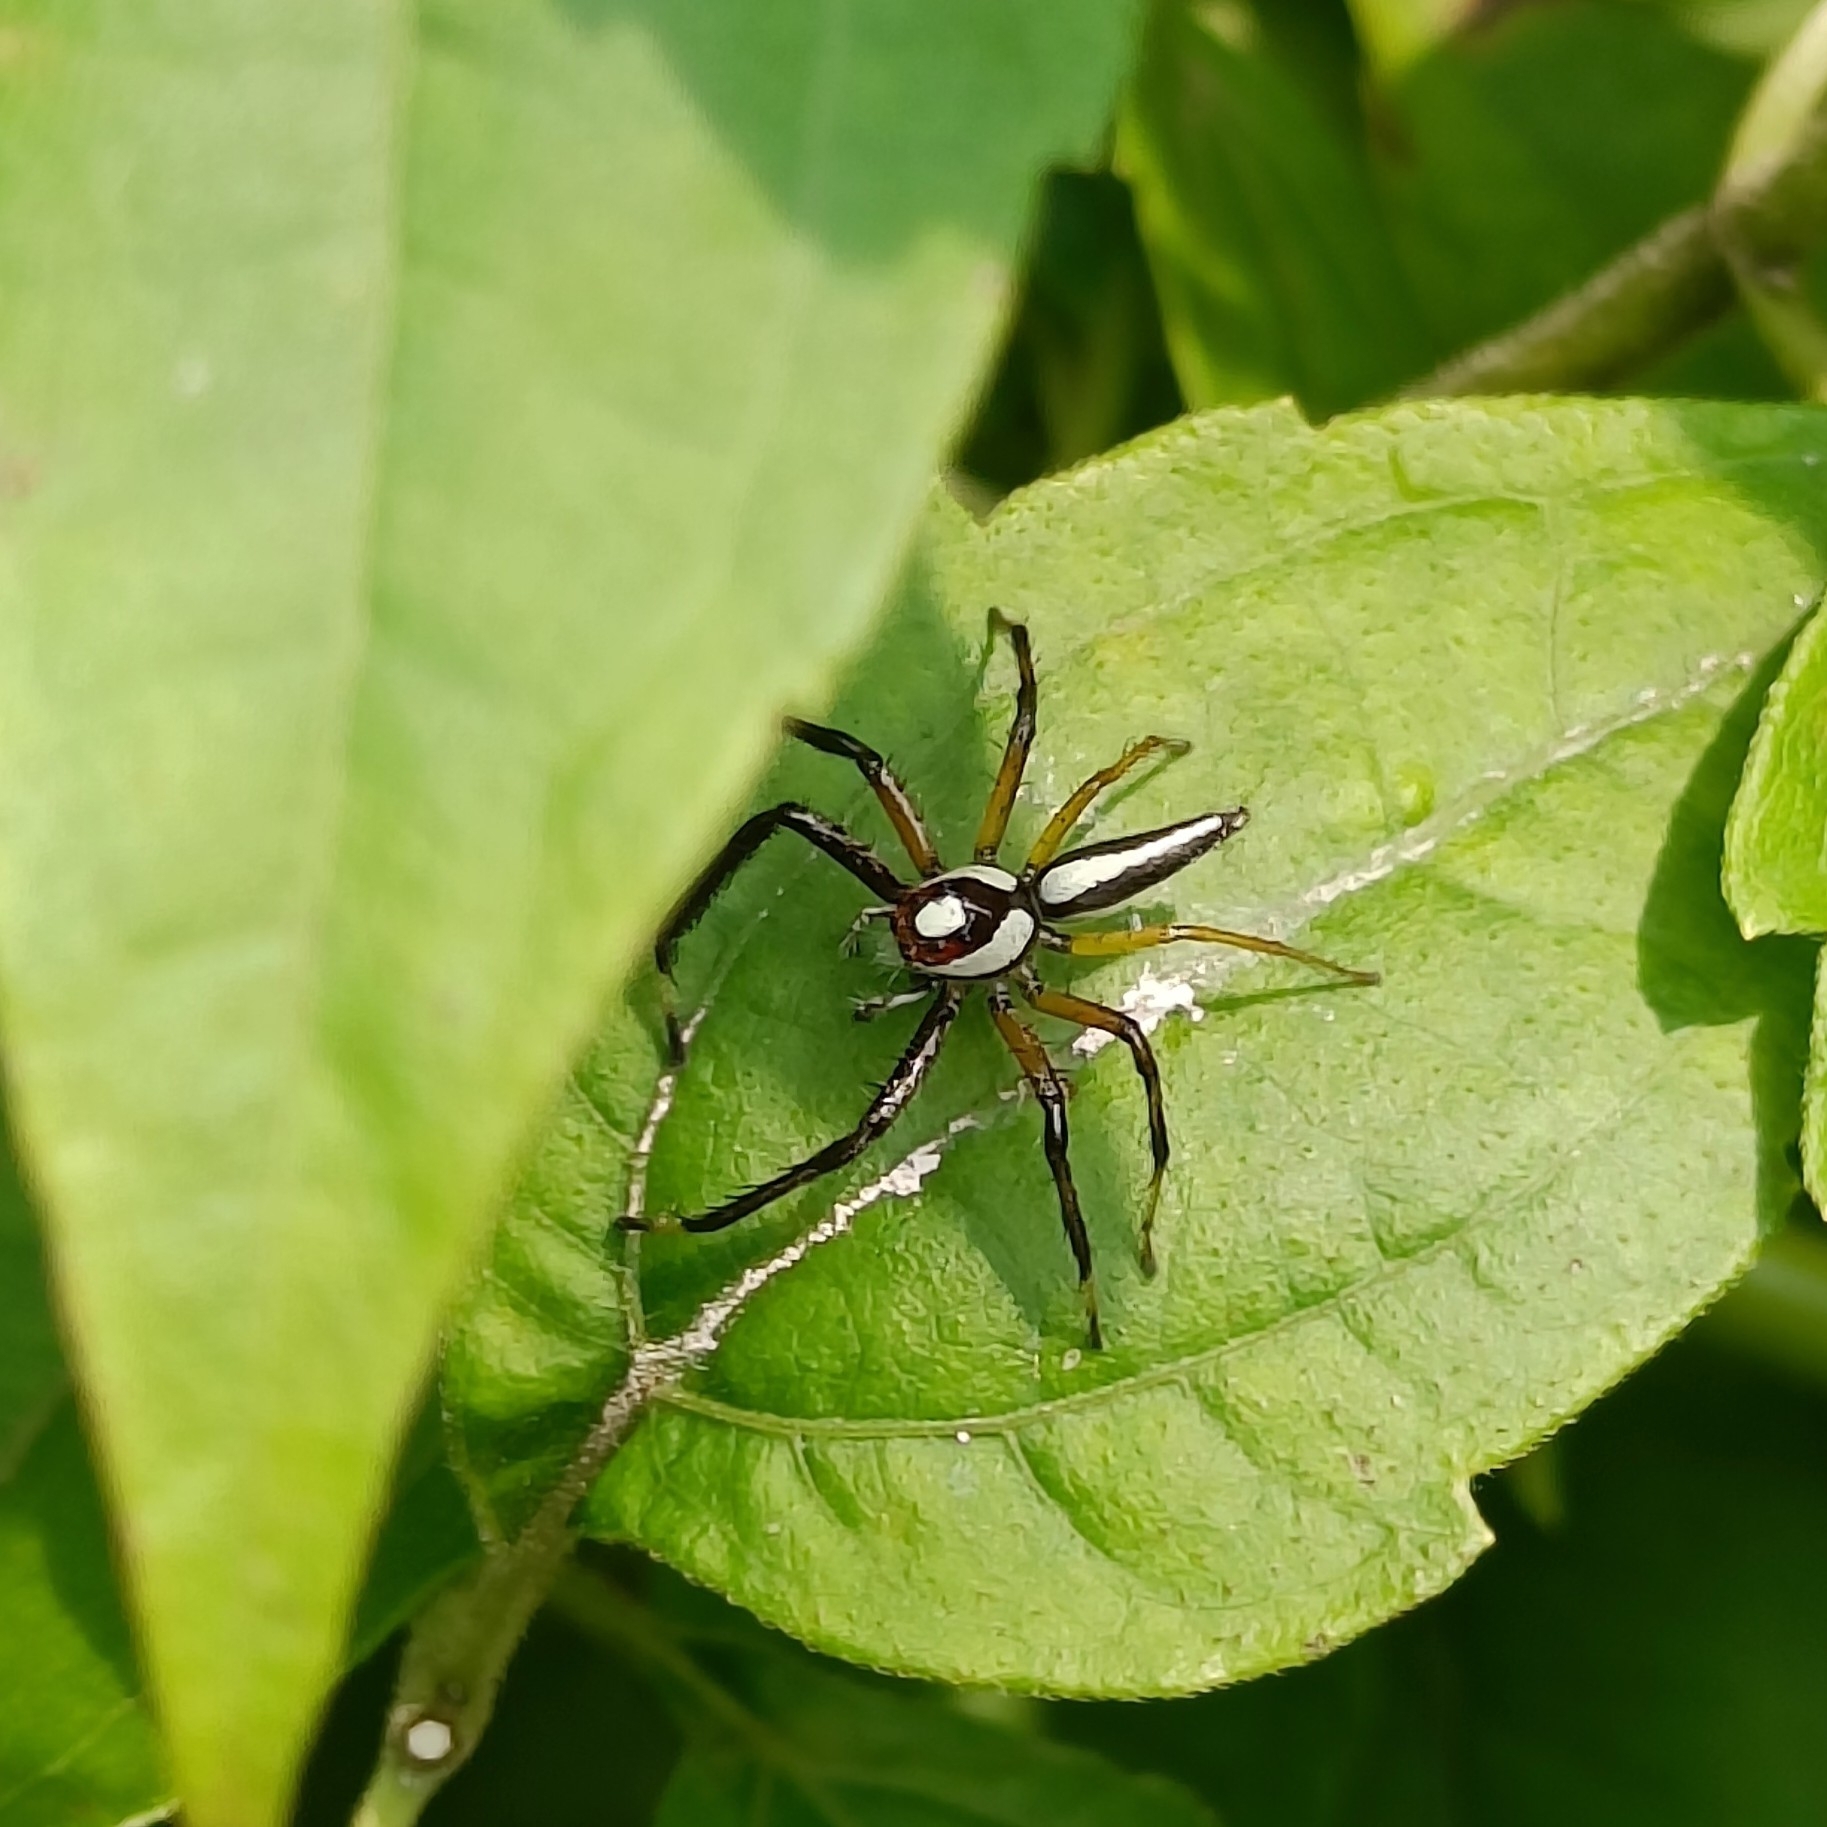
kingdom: Animalia
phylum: Arthropoda
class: Arachnida
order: Araneae
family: Salticidae
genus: Telamonia
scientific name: Telamonia dimidiata
